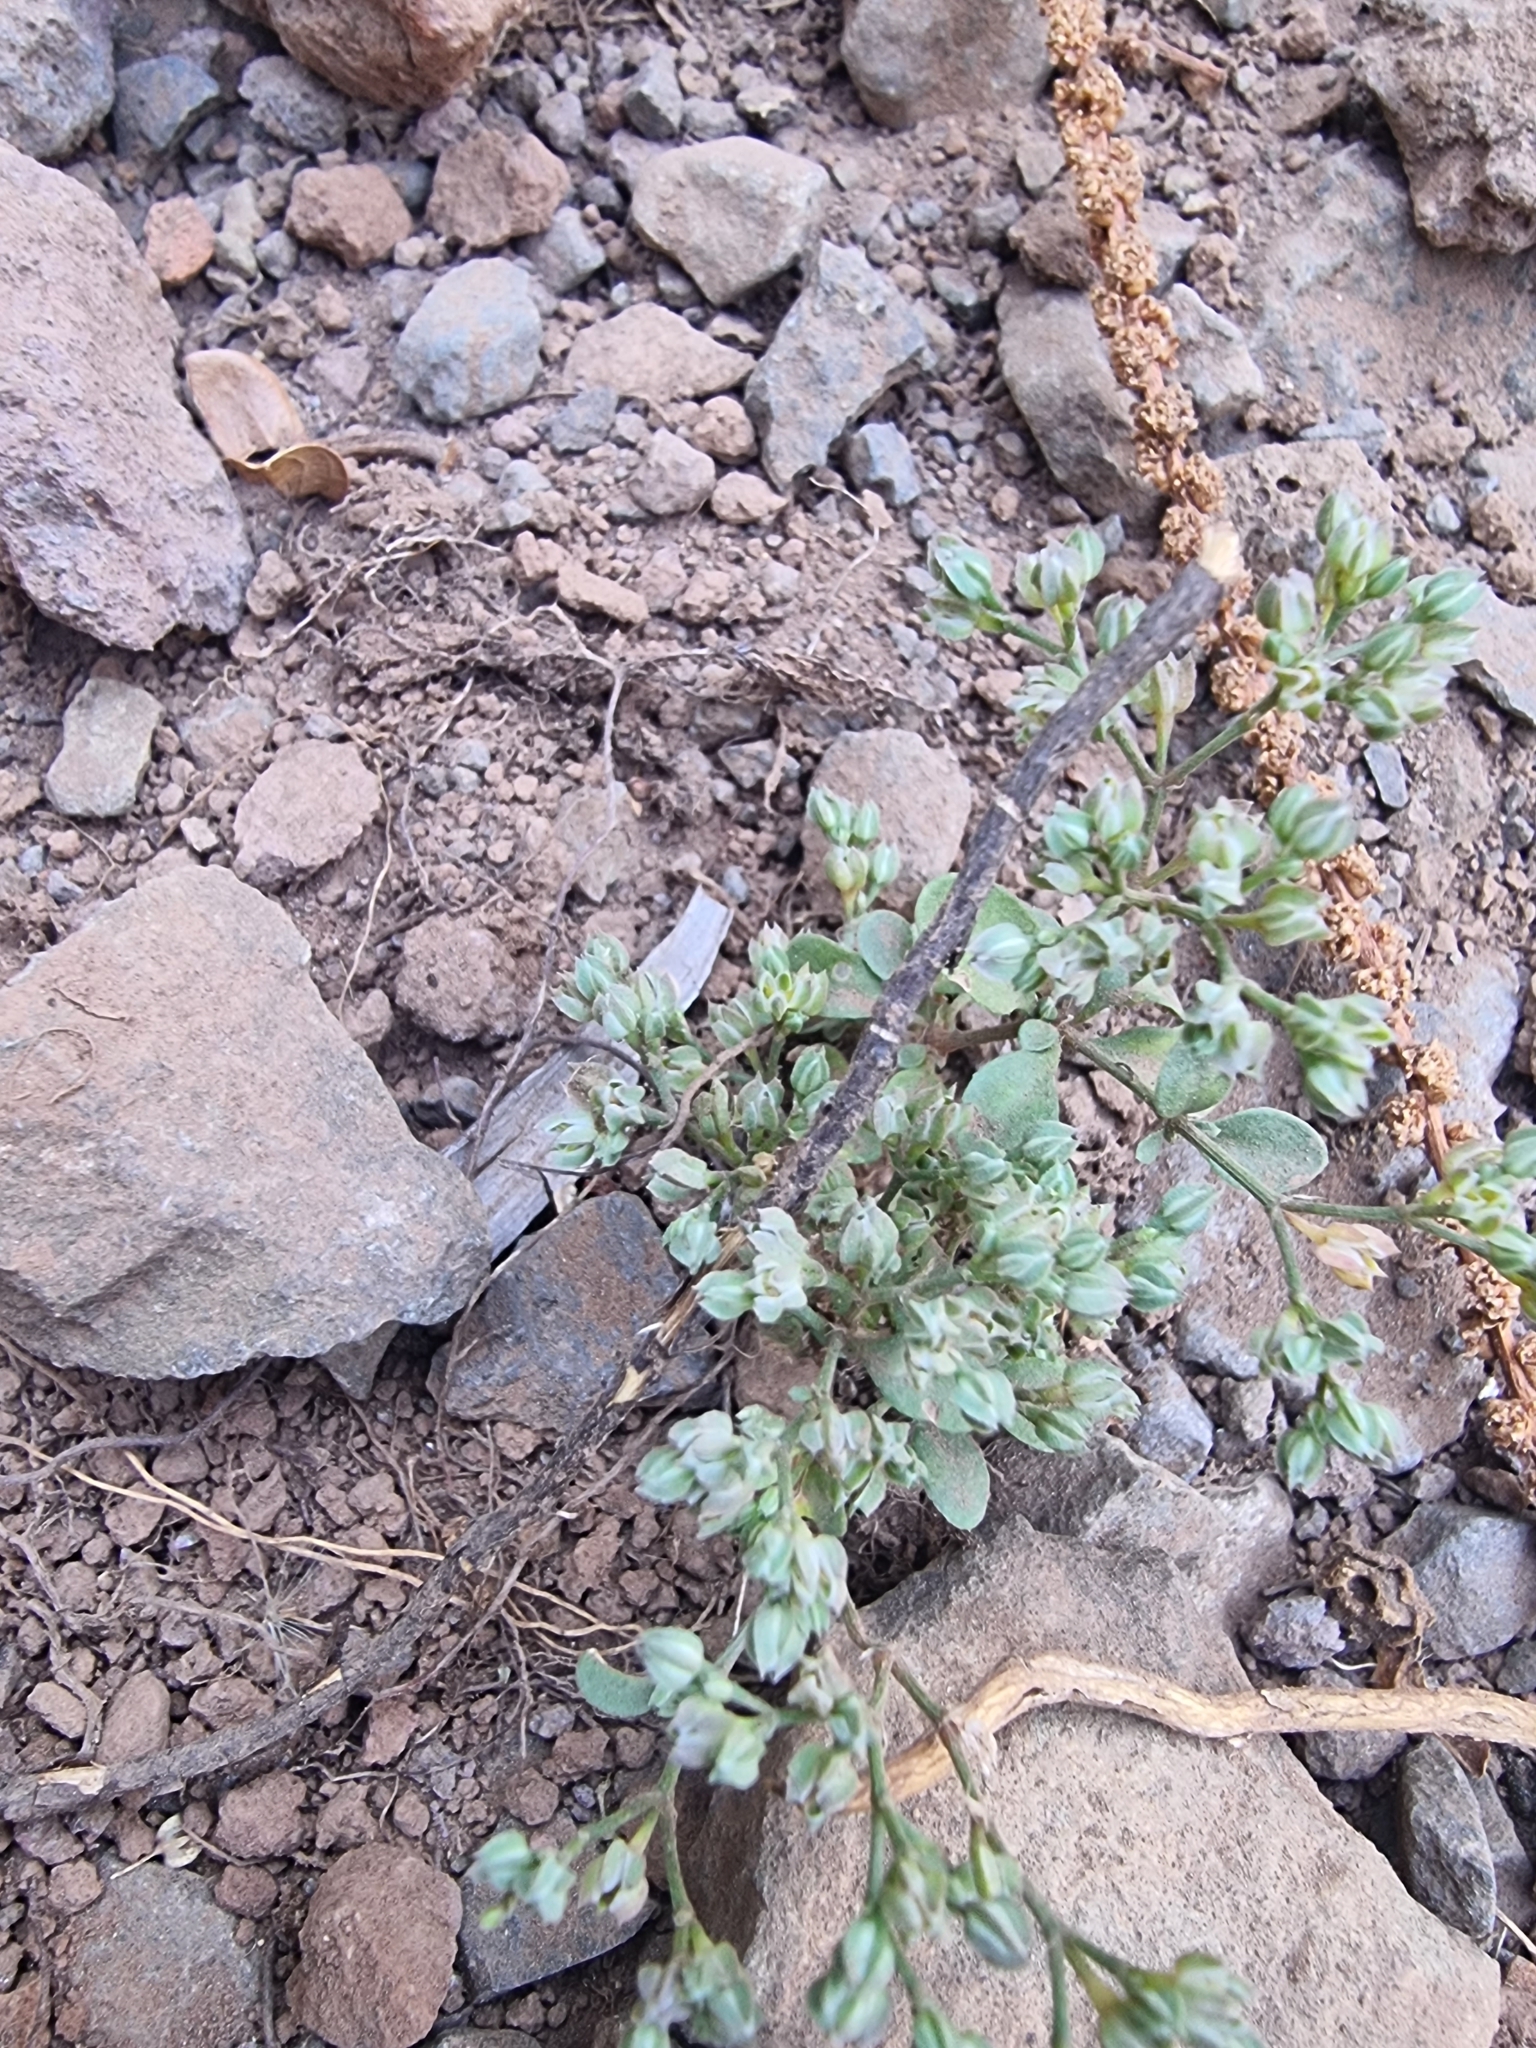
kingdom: Plantae
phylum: Tracheophyta
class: Magnoliopsida
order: Caryophyllales
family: Caryophyllaceae
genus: Polycarpon
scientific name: Polycarpon tetraphyllum
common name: Four-leaved all-seed
